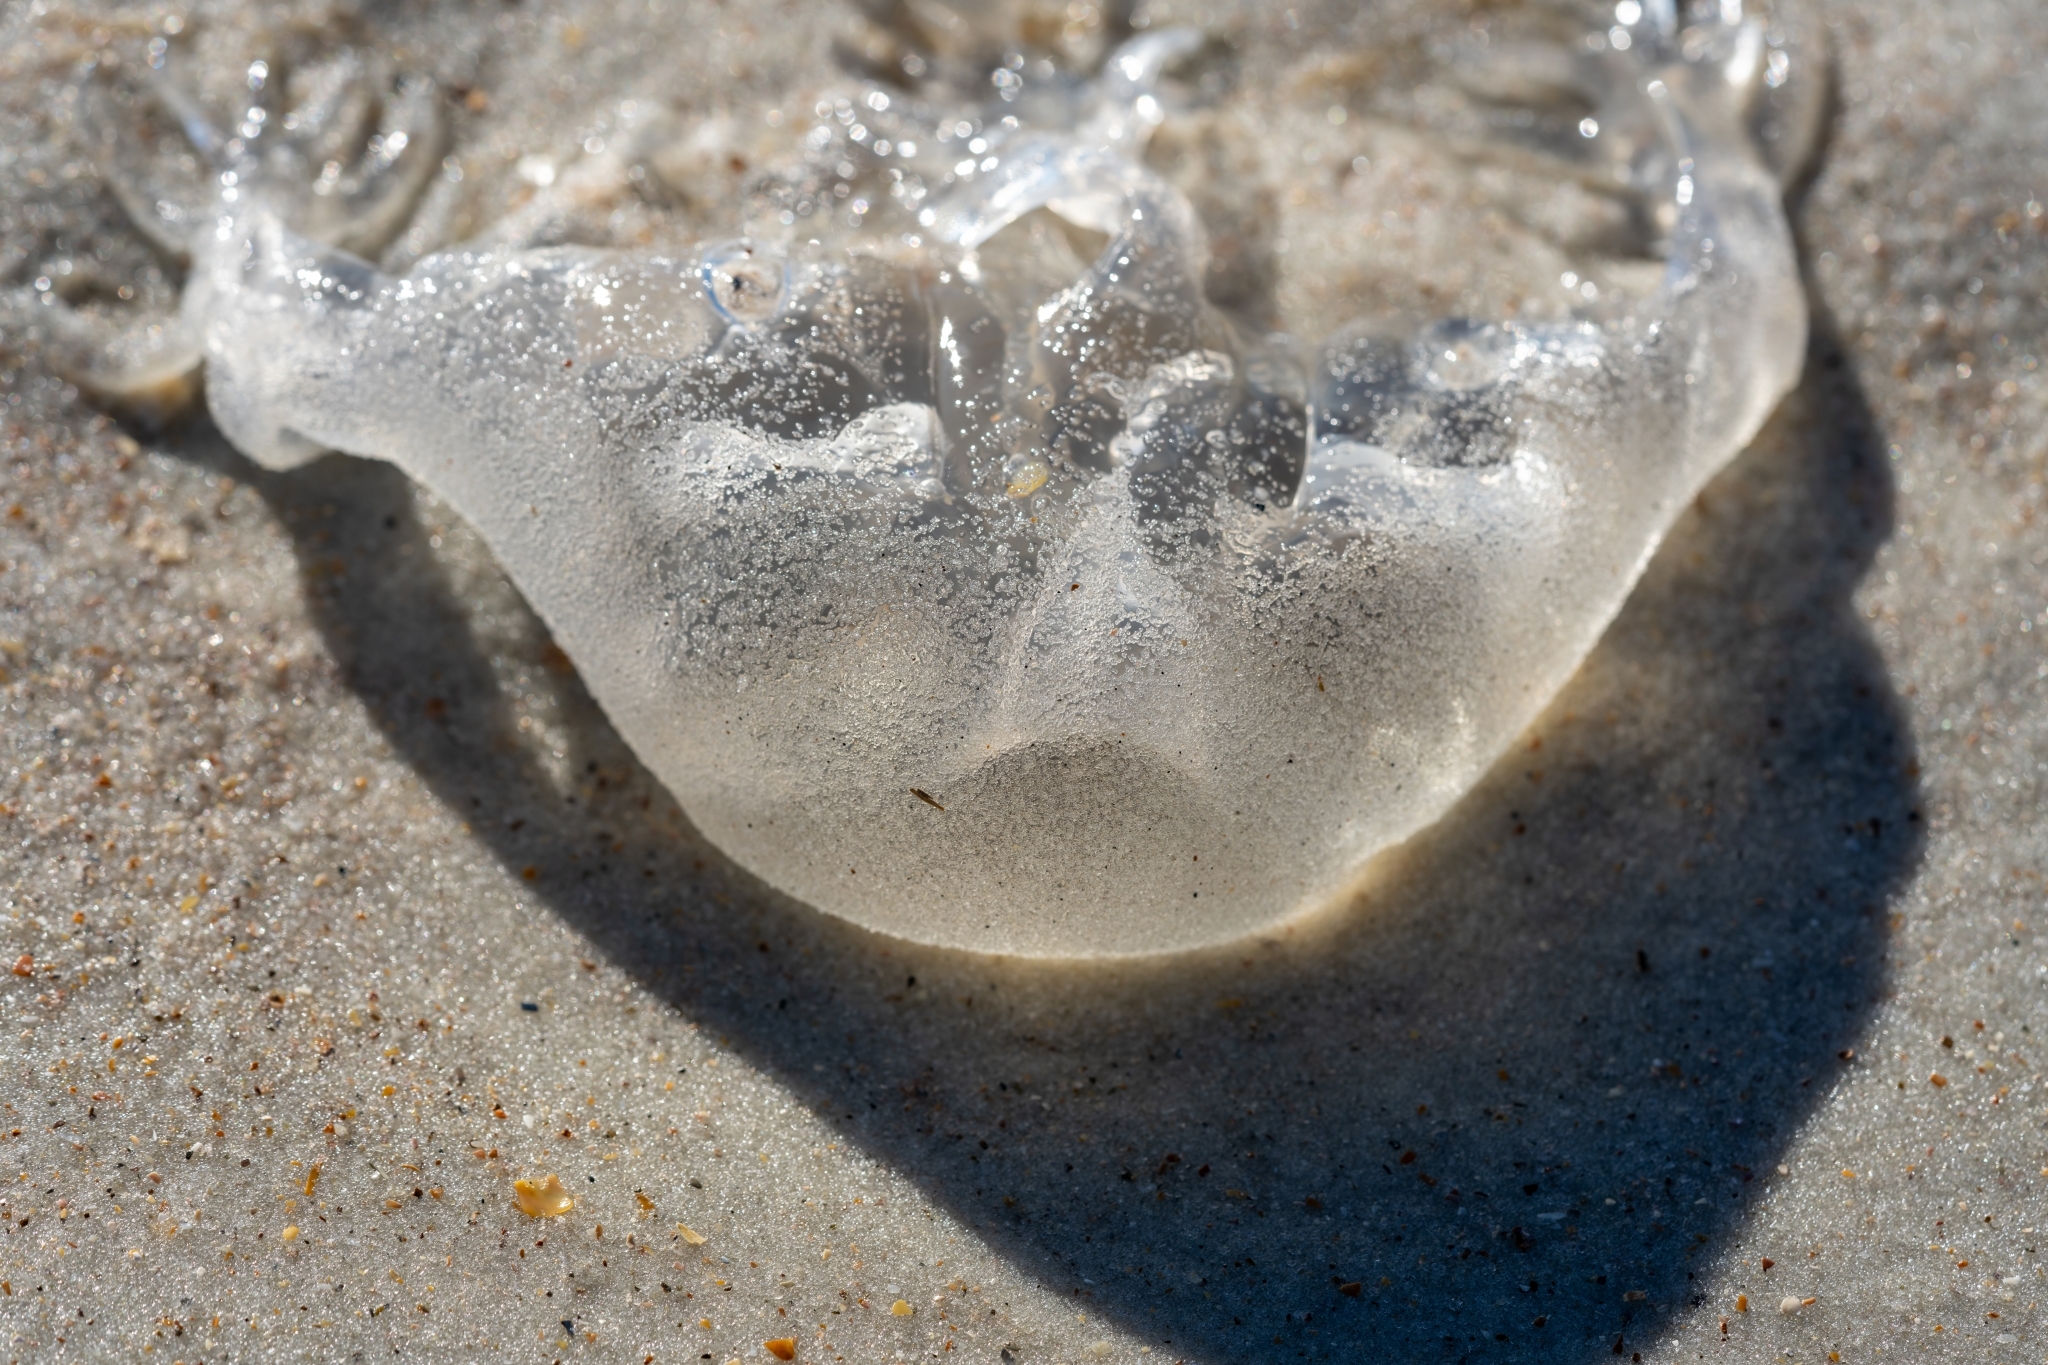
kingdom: Animalia
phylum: Cnidaria
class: Cubozoa
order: Chirodropida
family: Chiropsalmidae
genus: Chiropsalmus
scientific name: Chiropsalmus quadrumanus
